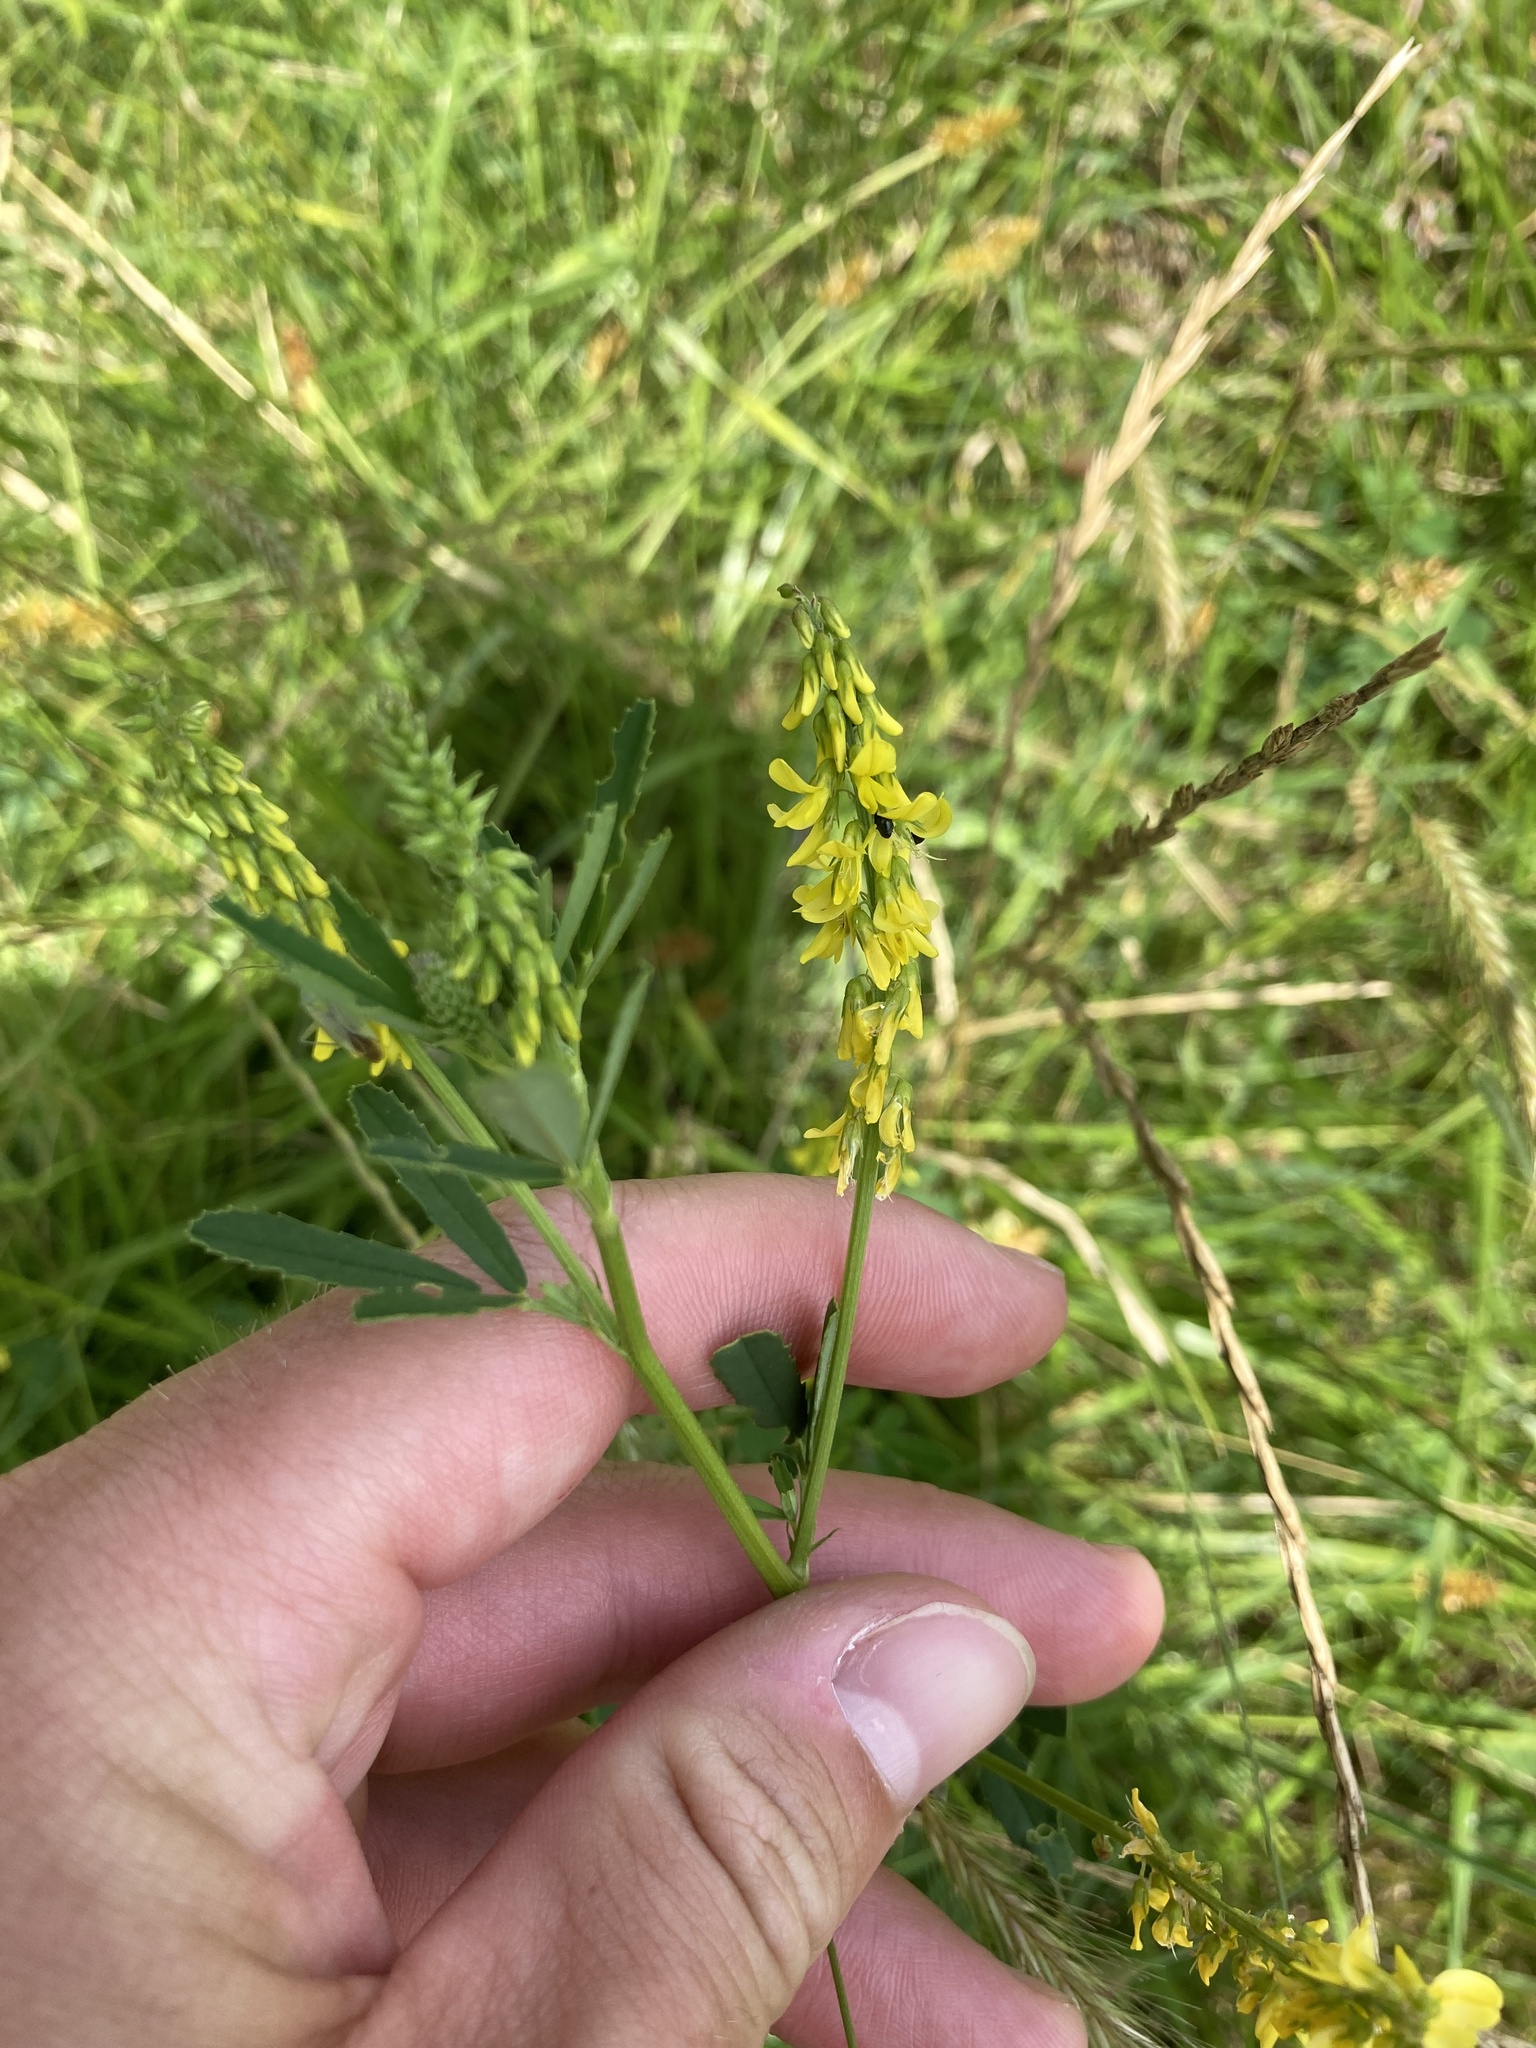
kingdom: Plantae
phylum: Tracheophyta
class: Magnoliopsida
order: Fabales
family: Fabaceae
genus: Melilotus
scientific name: Melilotus officinalis
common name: Sweetclover
